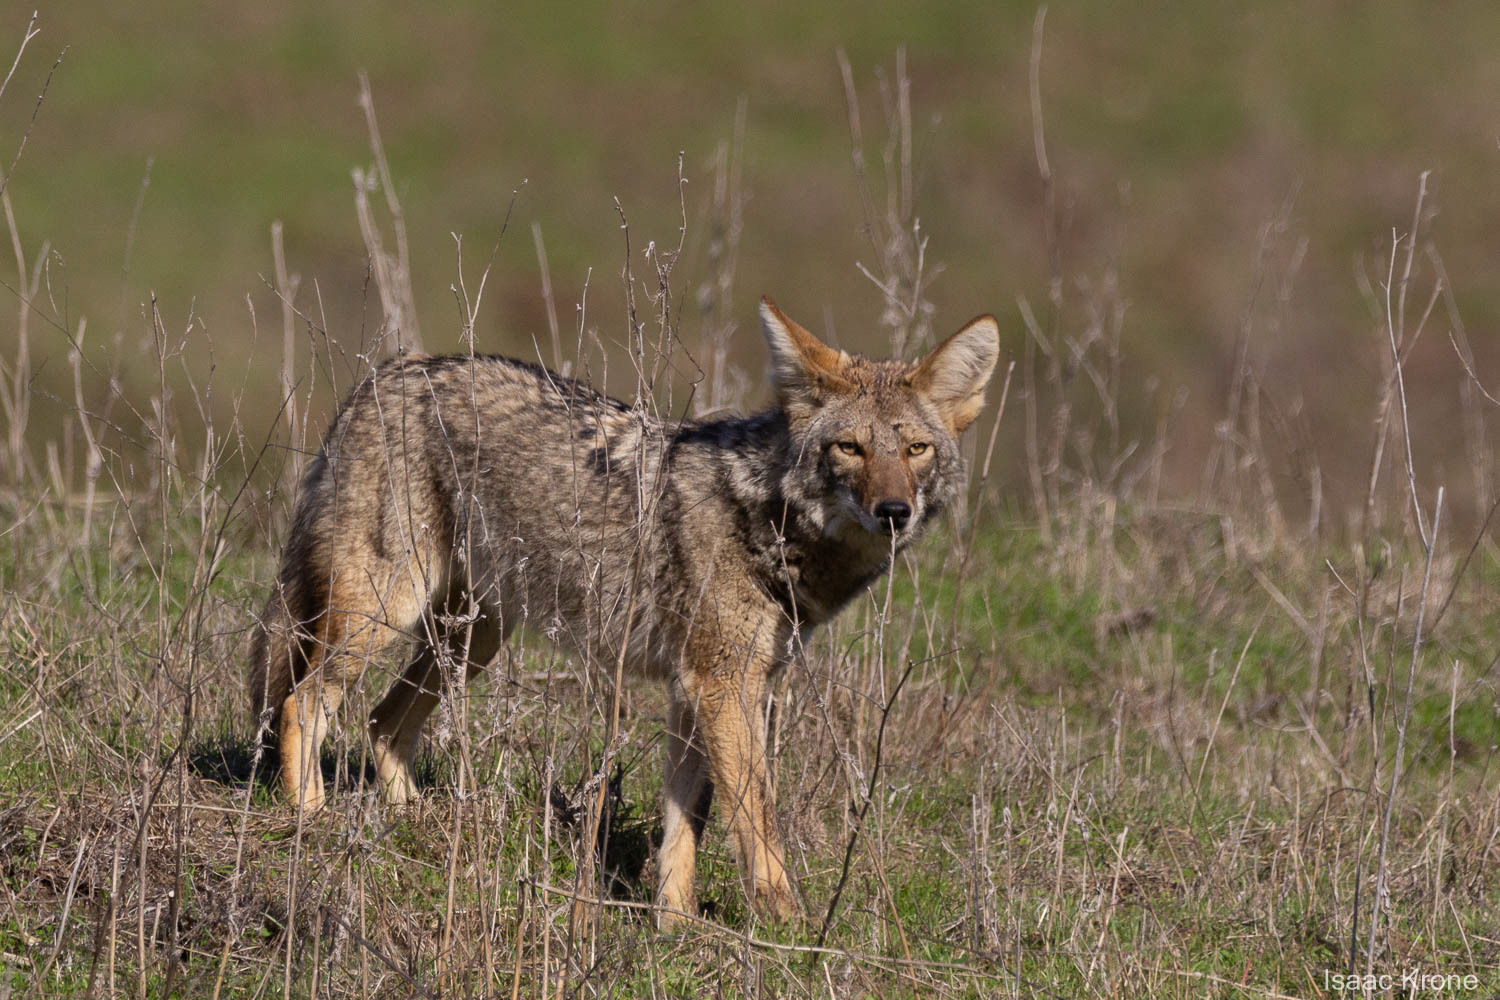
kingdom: Animalia
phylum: Chordata
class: Mammalia
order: Carnivora
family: Canidae
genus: Canis
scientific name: Canis latrans
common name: Coyote
